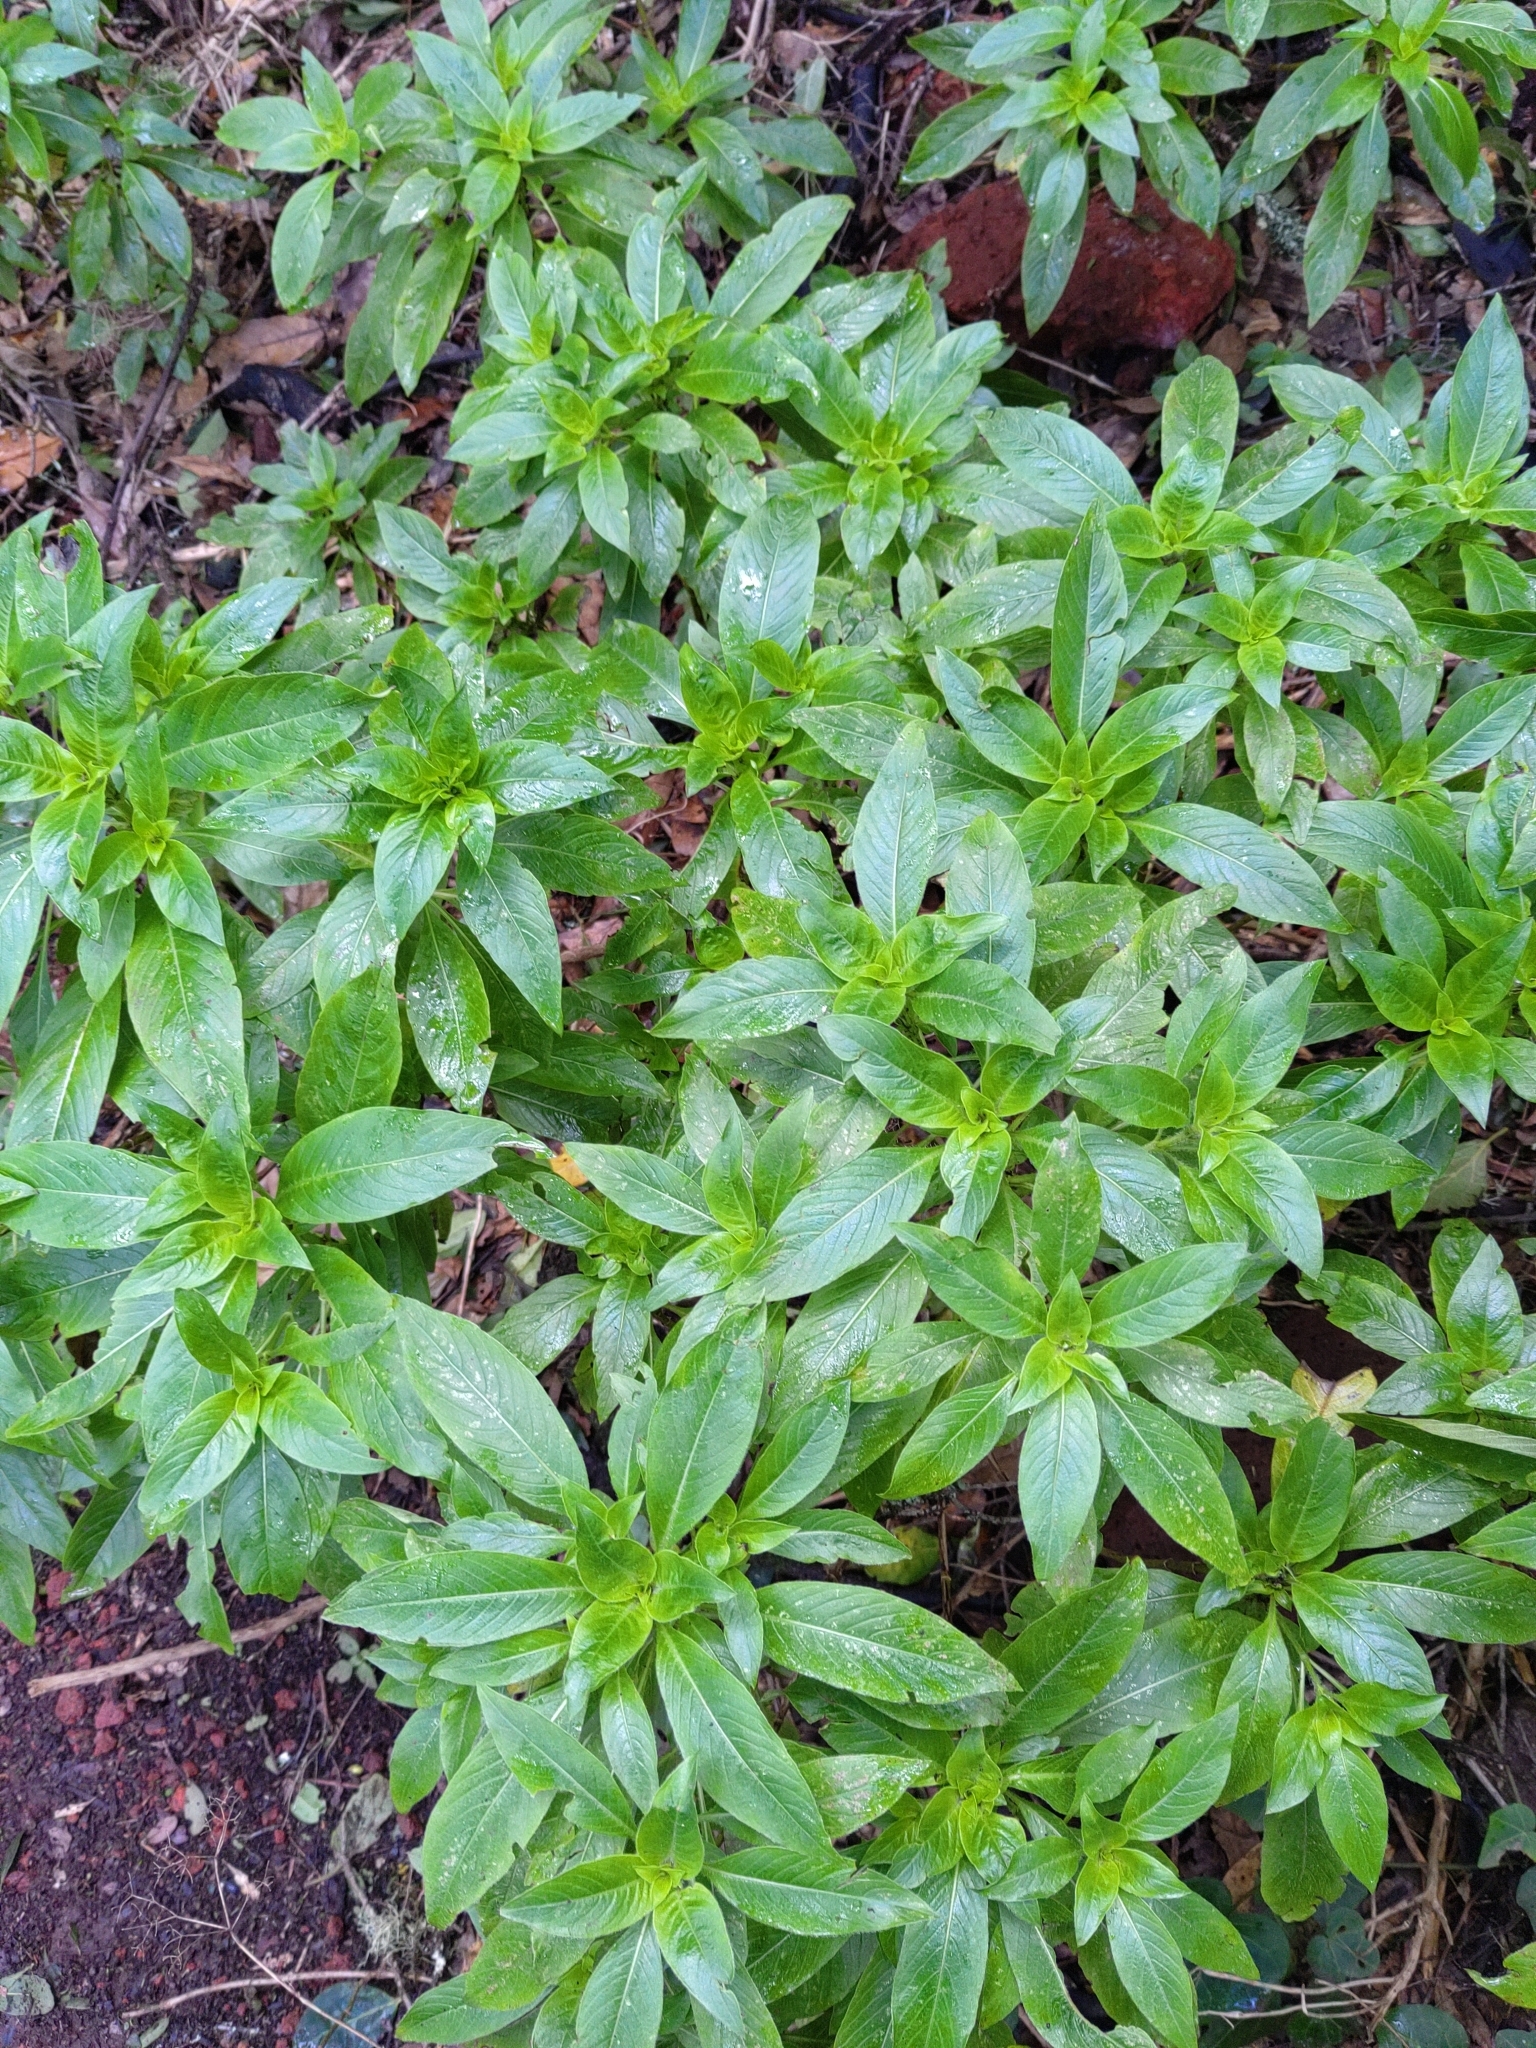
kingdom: Plantae
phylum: Tracheophyta
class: Magnoliopsida
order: Gentianales
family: Rubiaceae
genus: Phyllis
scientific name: Phyllis nobla
